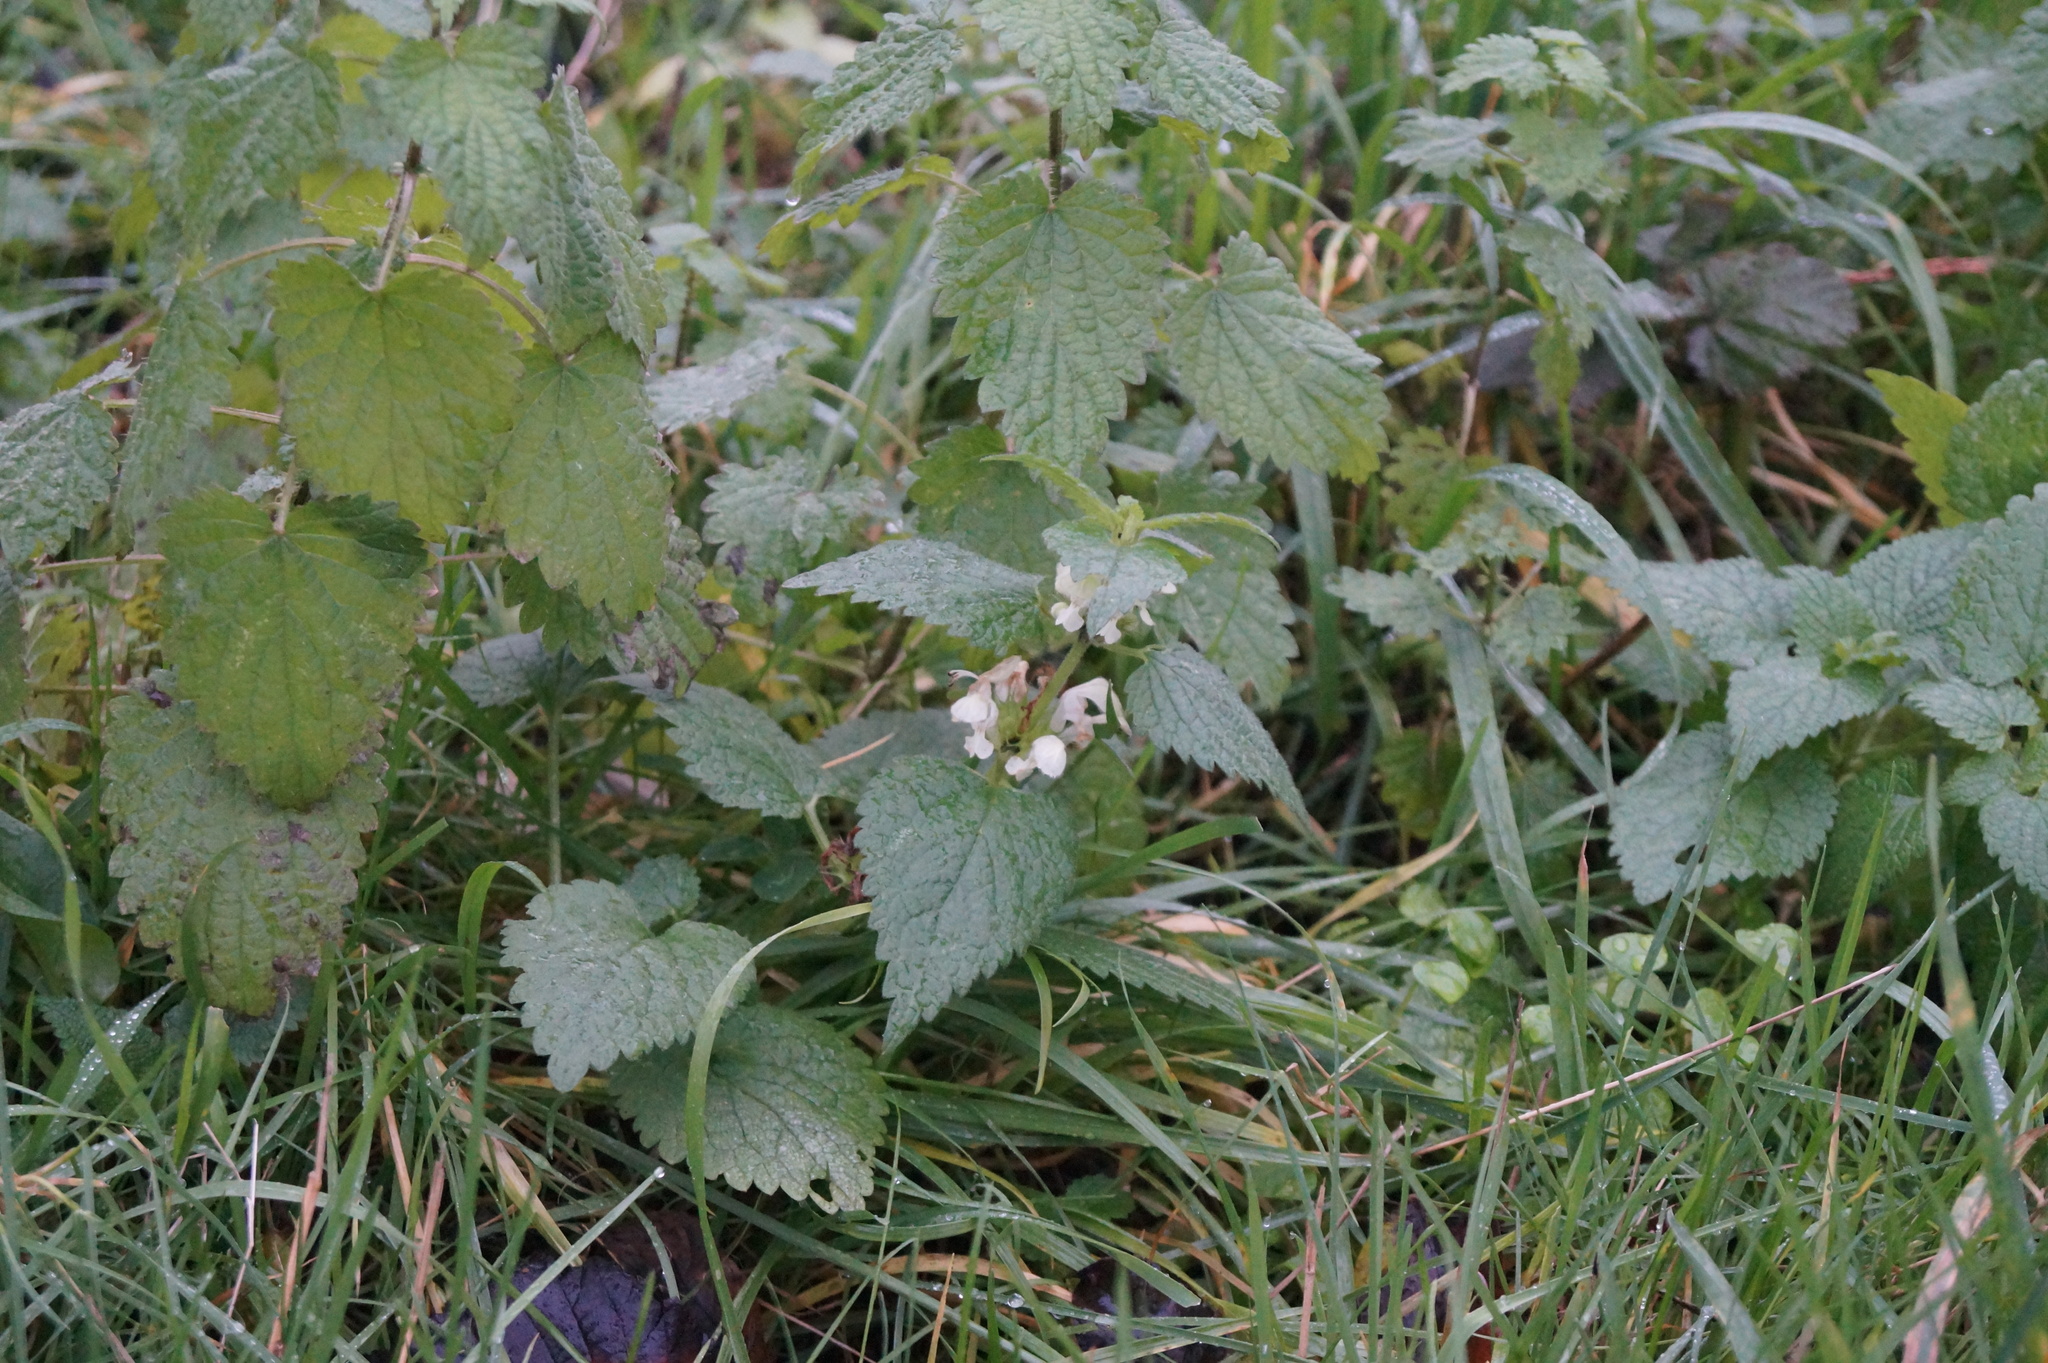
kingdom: Plantae
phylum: Tracheophyta
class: Magnoliopsida
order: Lamiales
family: Lamiaceae
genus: Lamium
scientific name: Lamium album
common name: White dead-nettle
